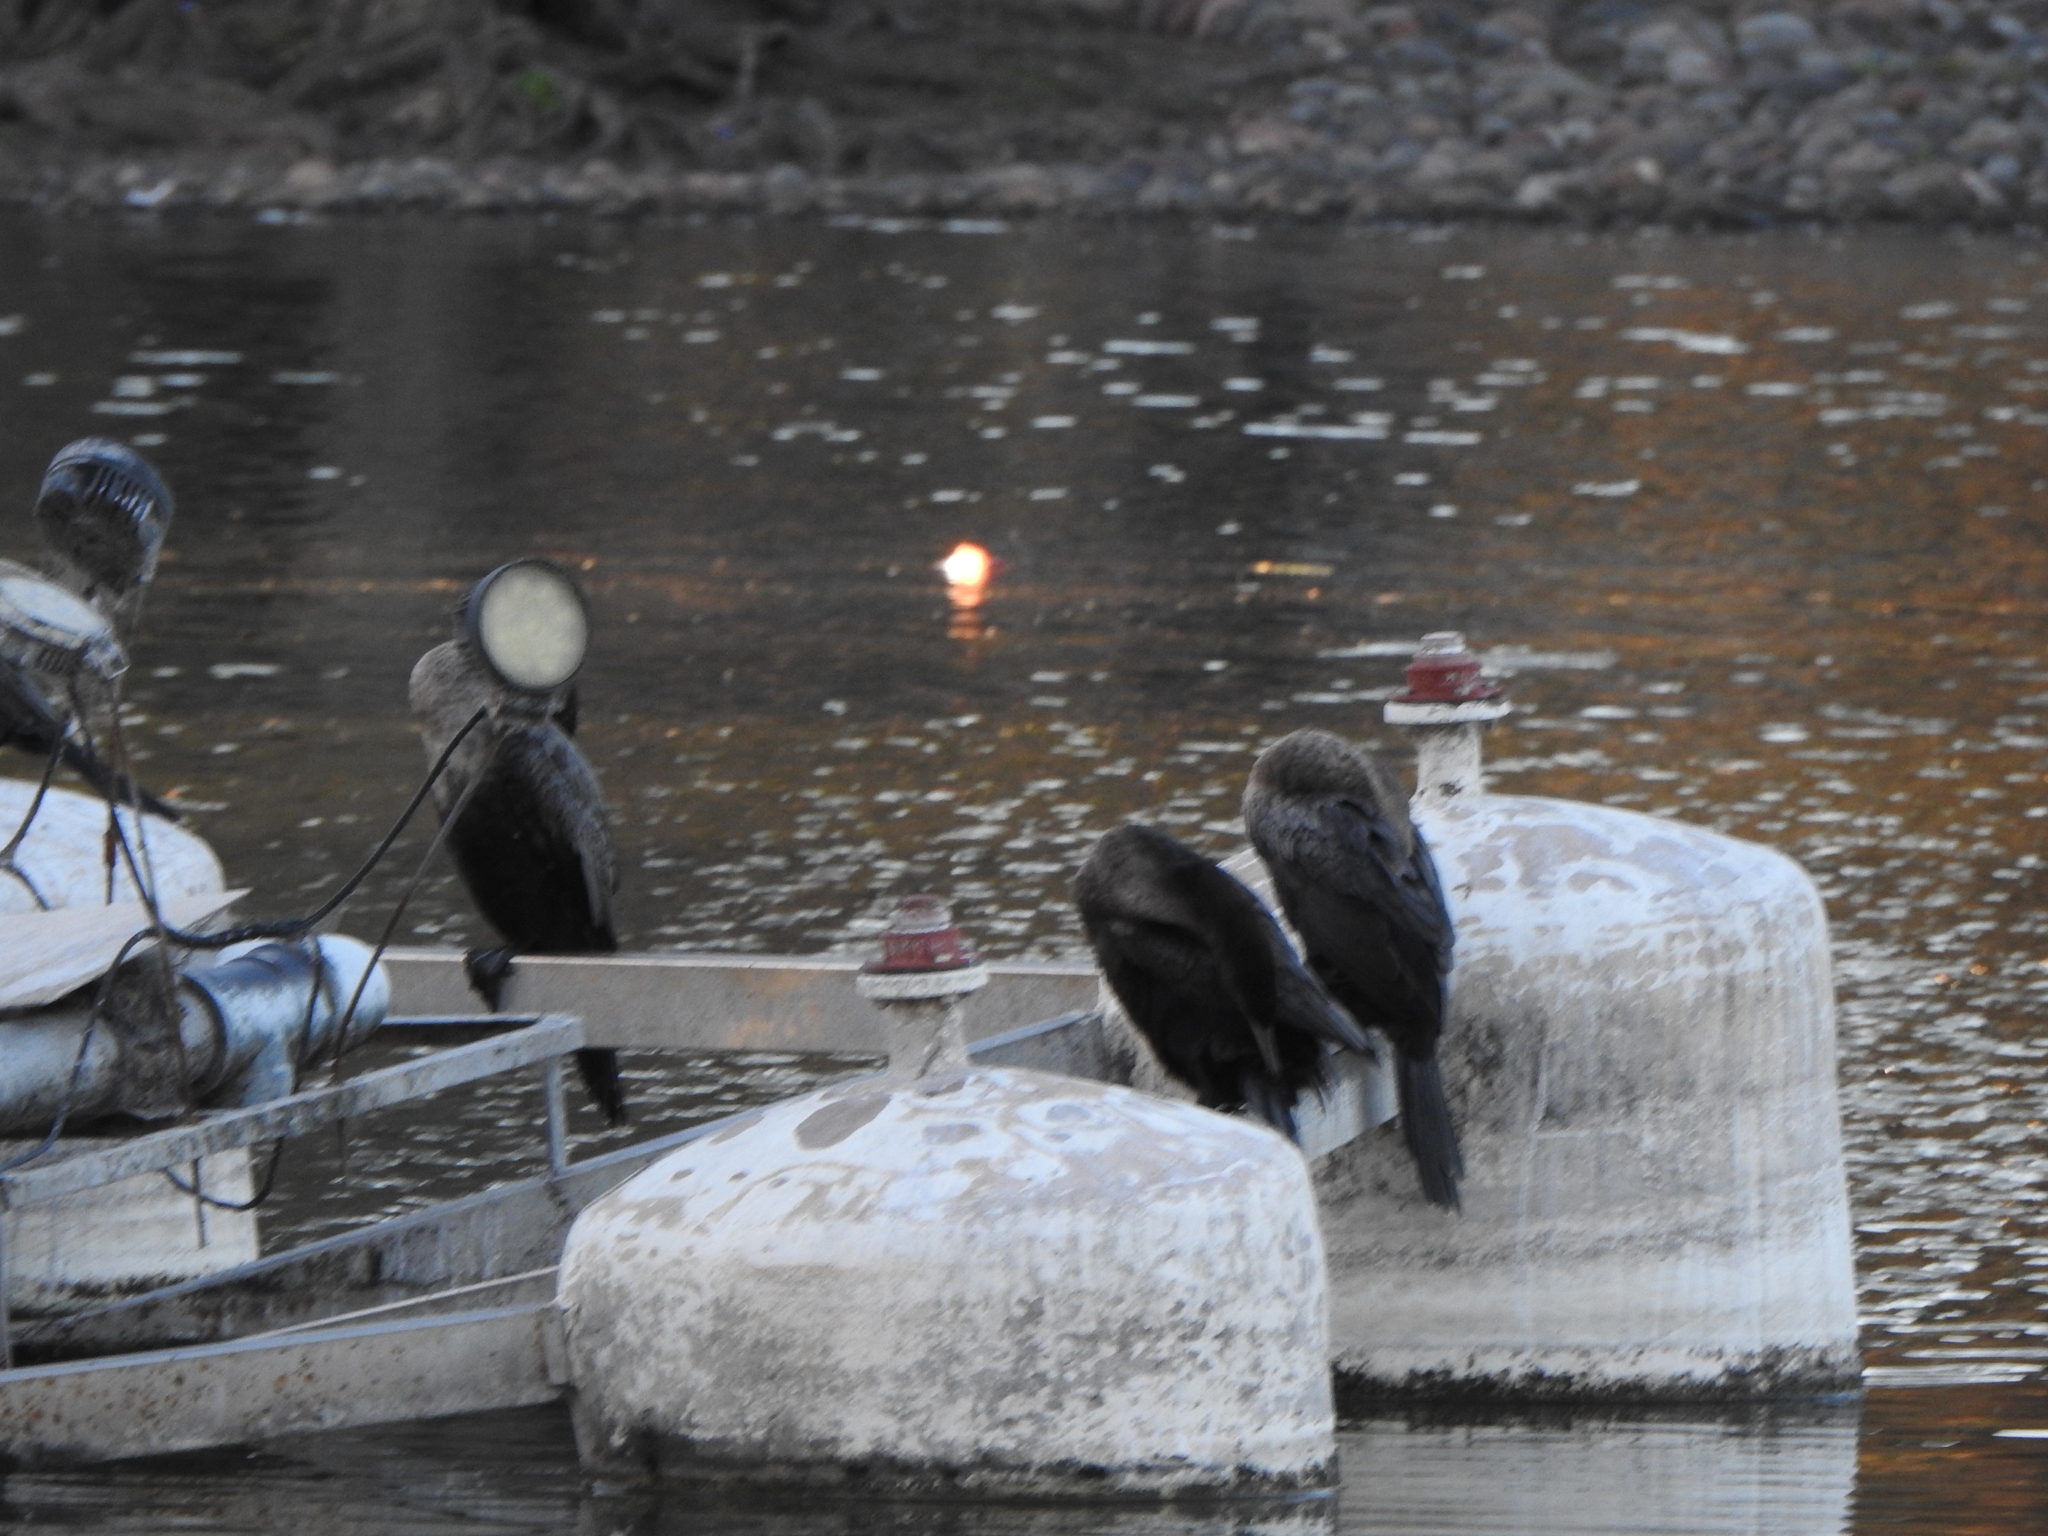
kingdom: Animalia
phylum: Chordata
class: Aves
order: Suliformes
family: Phalacrocoracidae
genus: Phalacrocorax
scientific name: Phalacrocorax brasilianus
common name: Neotropic cormorant
